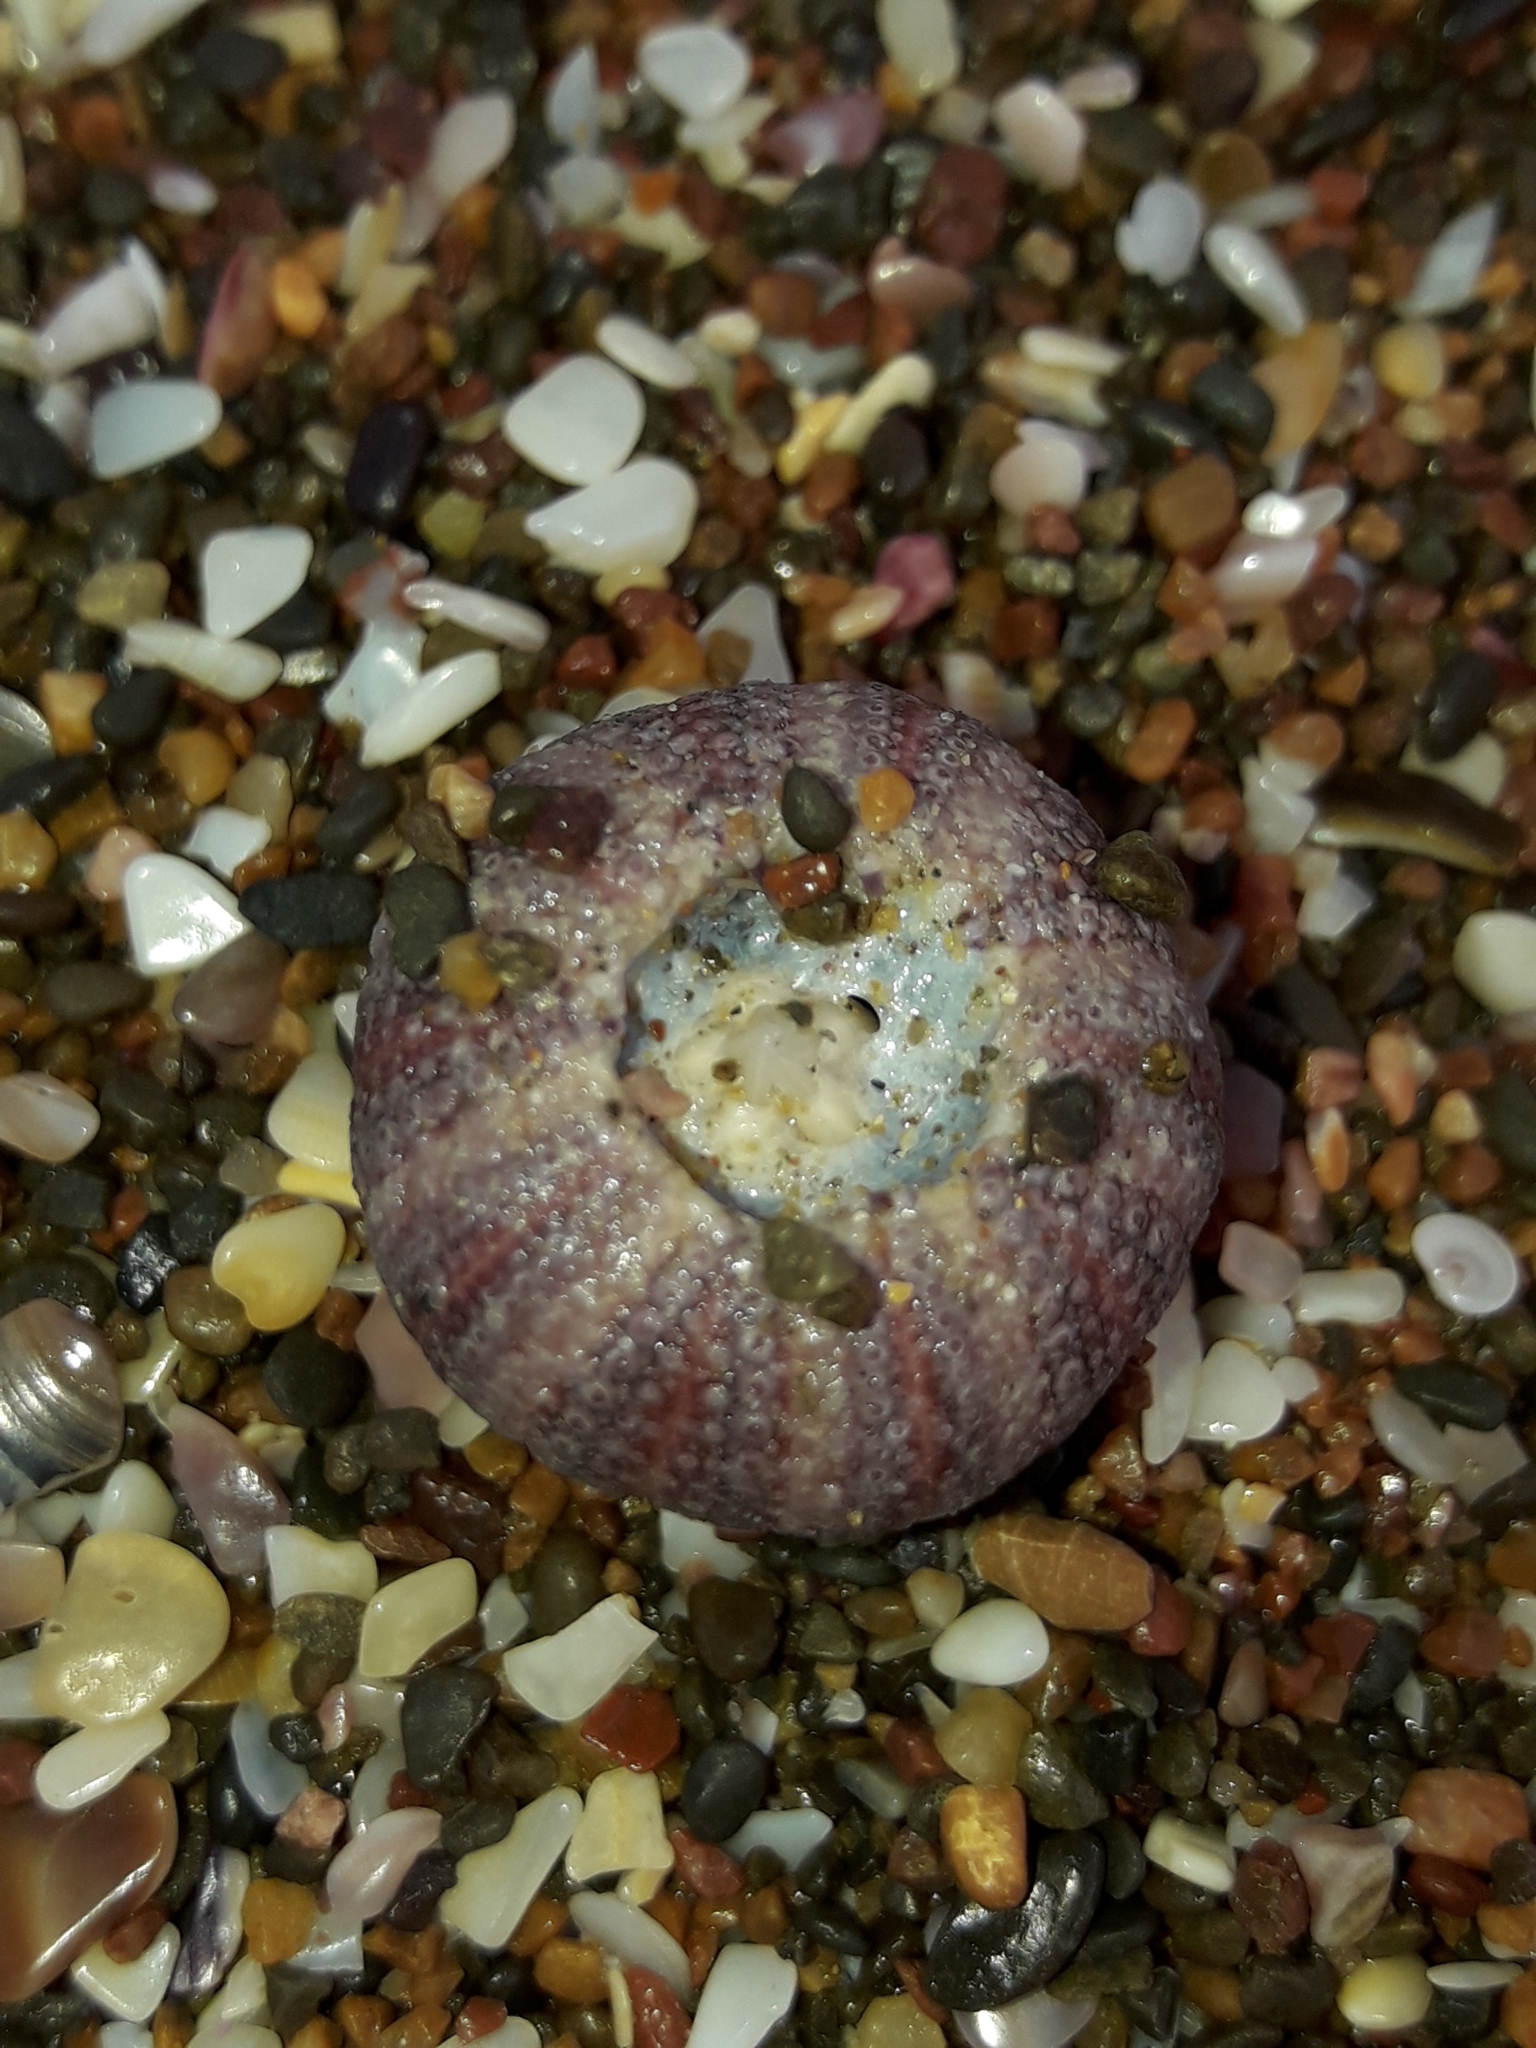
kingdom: Animalia
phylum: Echinodermata
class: Echinoidea
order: Camarodonta
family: Temnopleuridae
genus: Amblypneustes
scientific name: Amblypneustes elevatus
